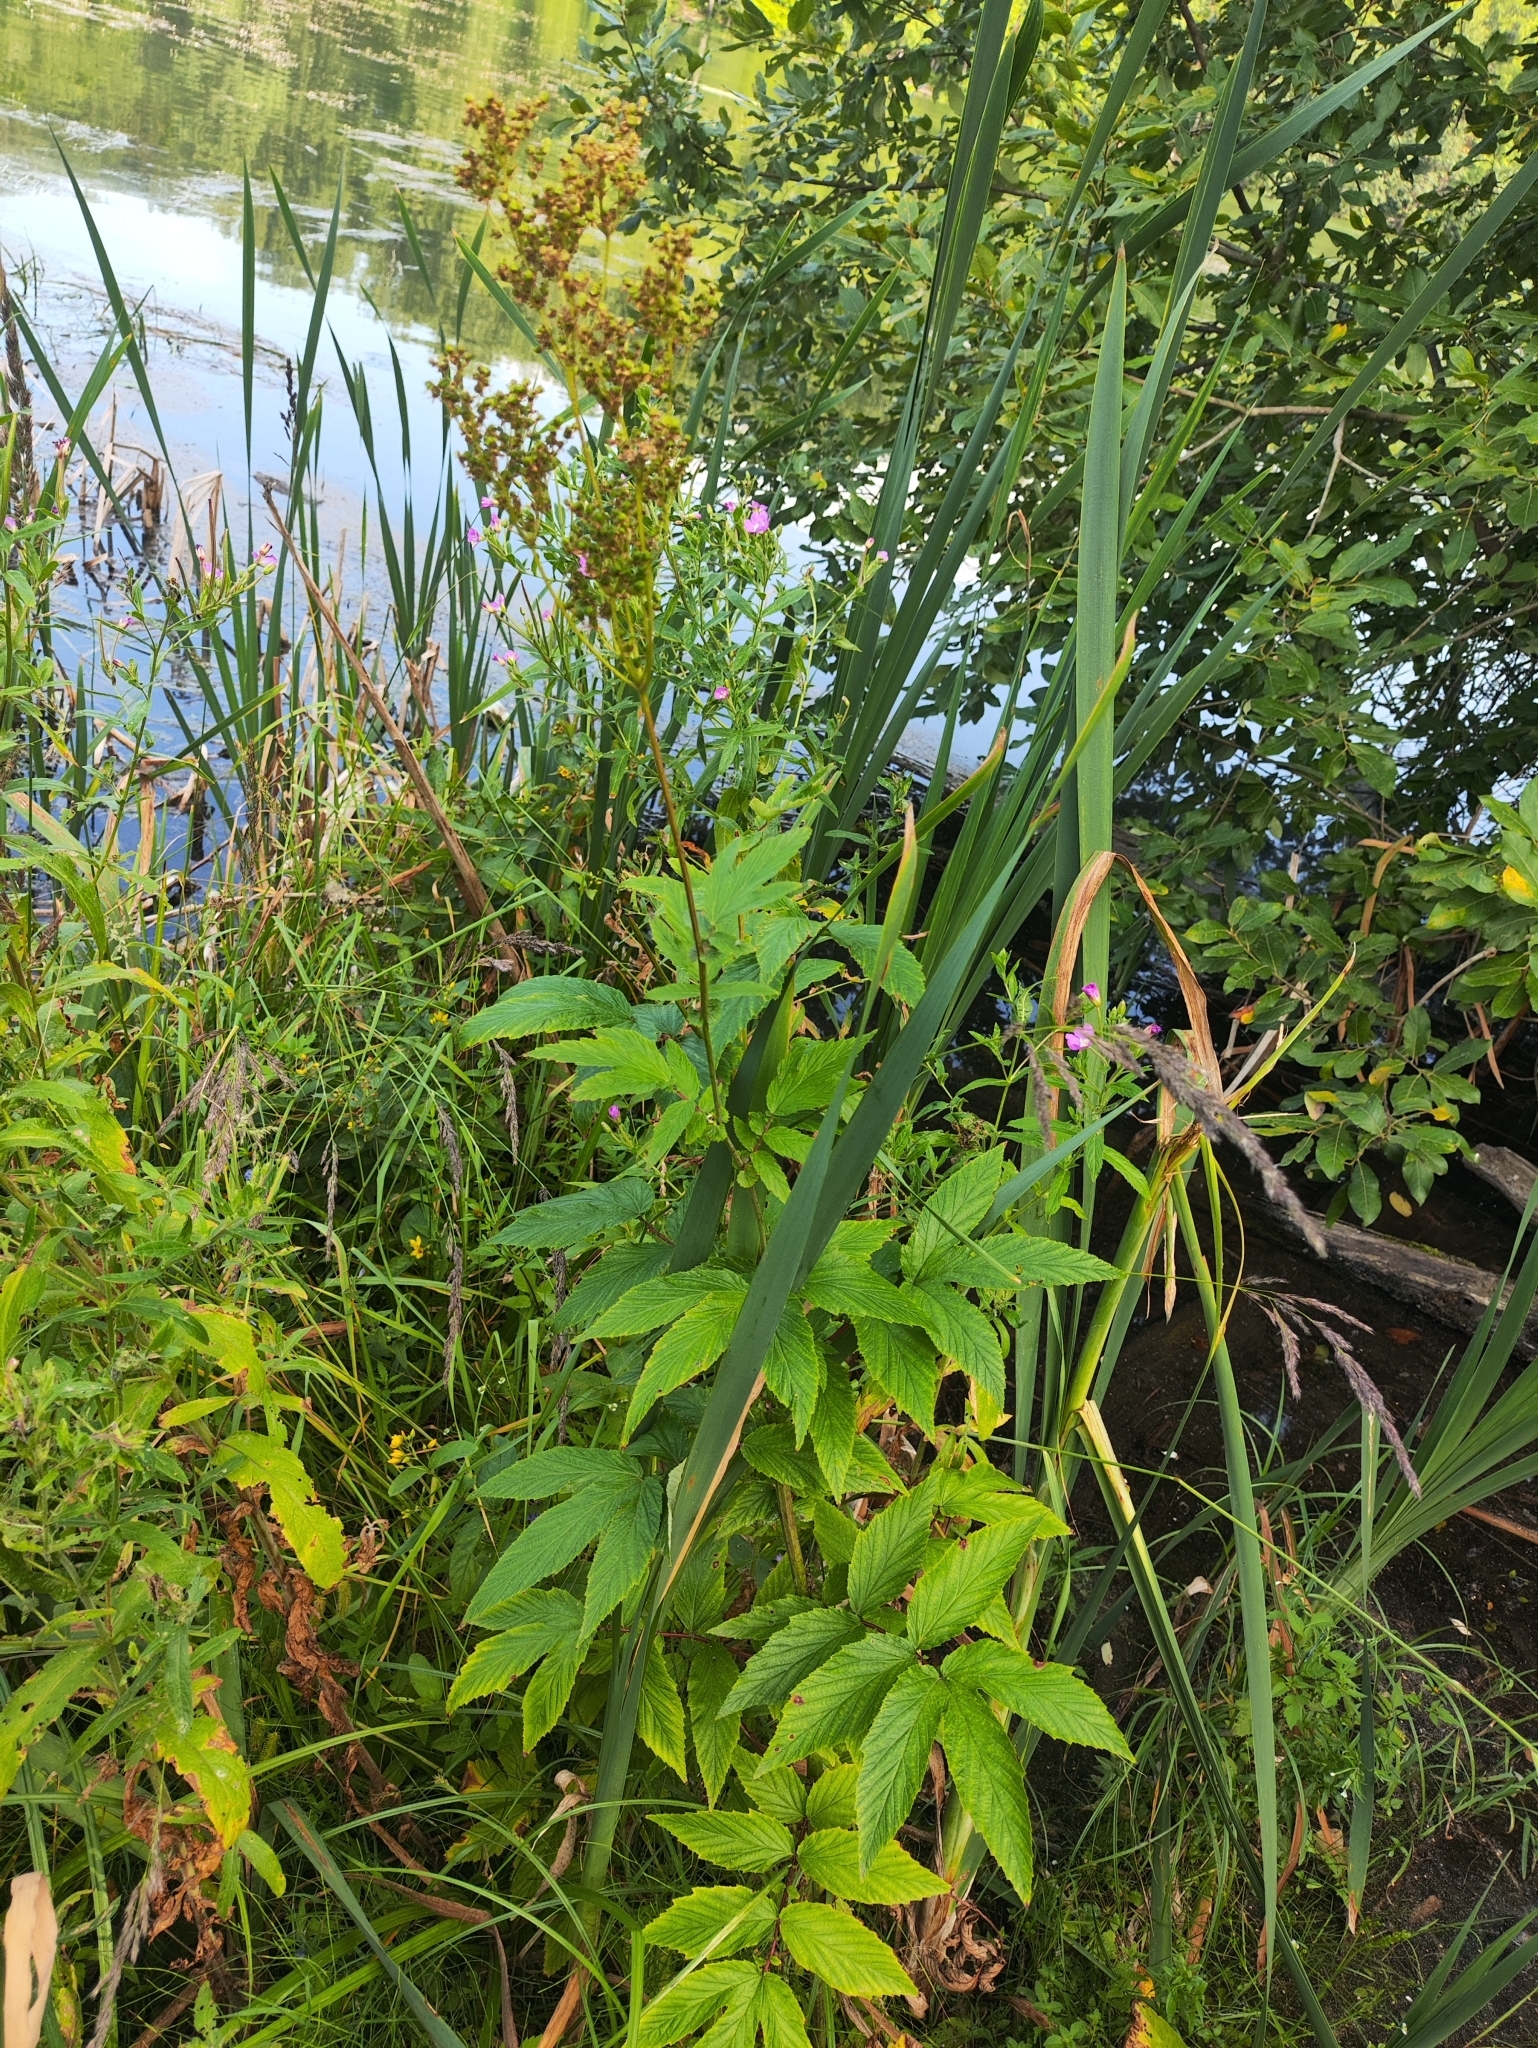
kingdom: Plantae
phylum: Tracheophyta
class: Magnoliopsida
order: Rosales
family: Rosaceae
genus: Filipendula
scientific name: Filipendula ulmaria
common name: Meadowsweet
